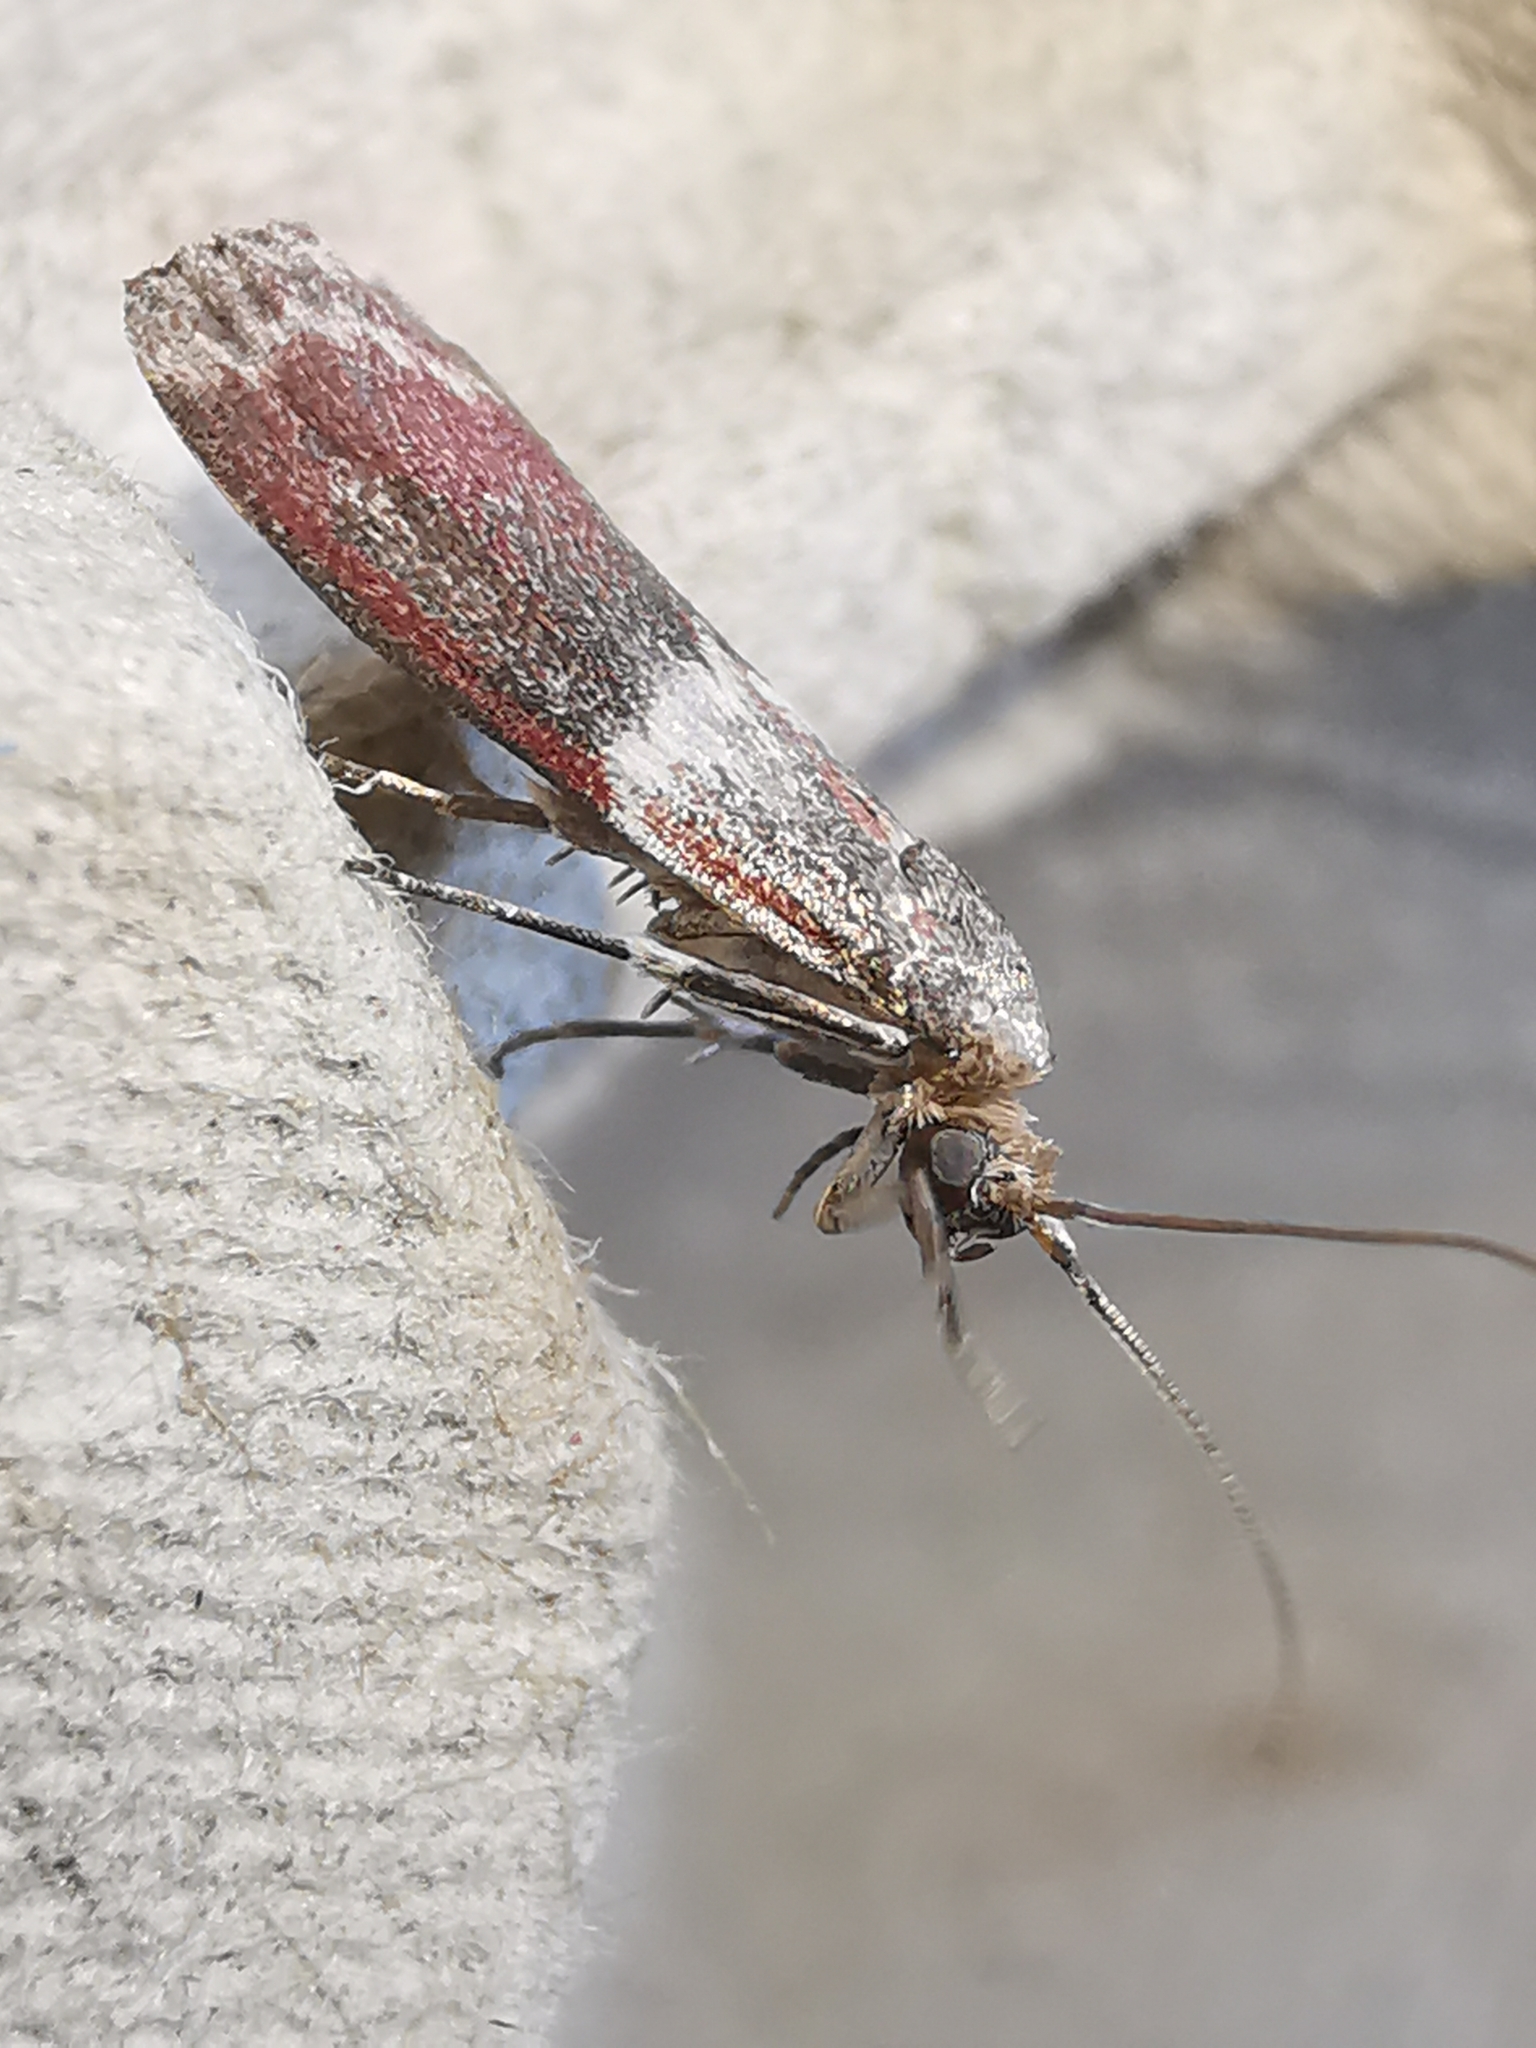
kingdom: Animalia
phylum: Arthropoda
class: Insecta
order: Lepidoptera
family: Pyralidae
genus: Cryptoblabes
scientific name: Cryptoblabes bistriga
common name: Double-striped knot-horn
